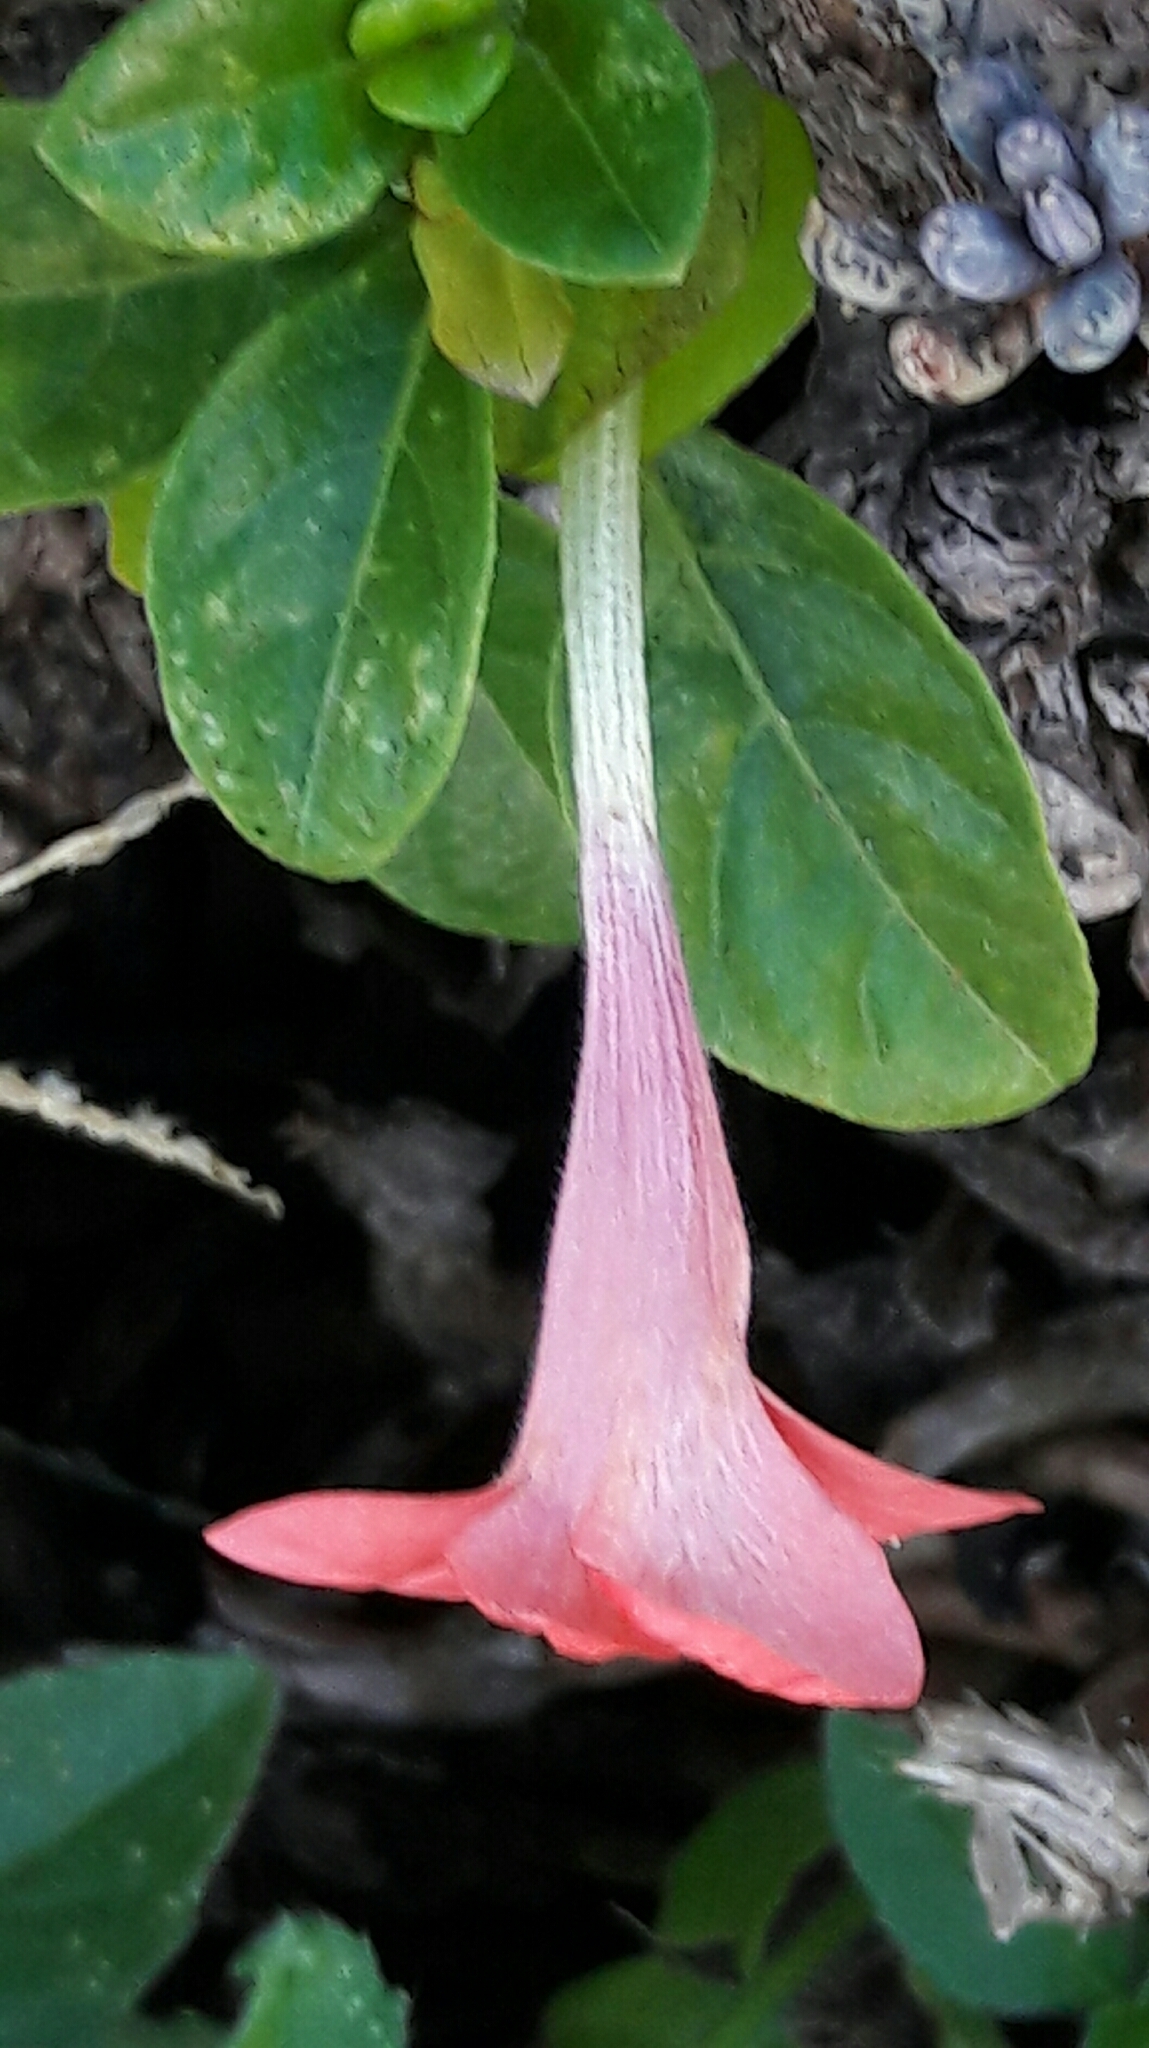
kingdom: Plantae
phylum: Tracheophyta
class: Magnoliopsida
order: Lamiales
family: Acanthaceae
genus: Barleria
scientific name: Barleria repens
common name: Pink-ruellia
